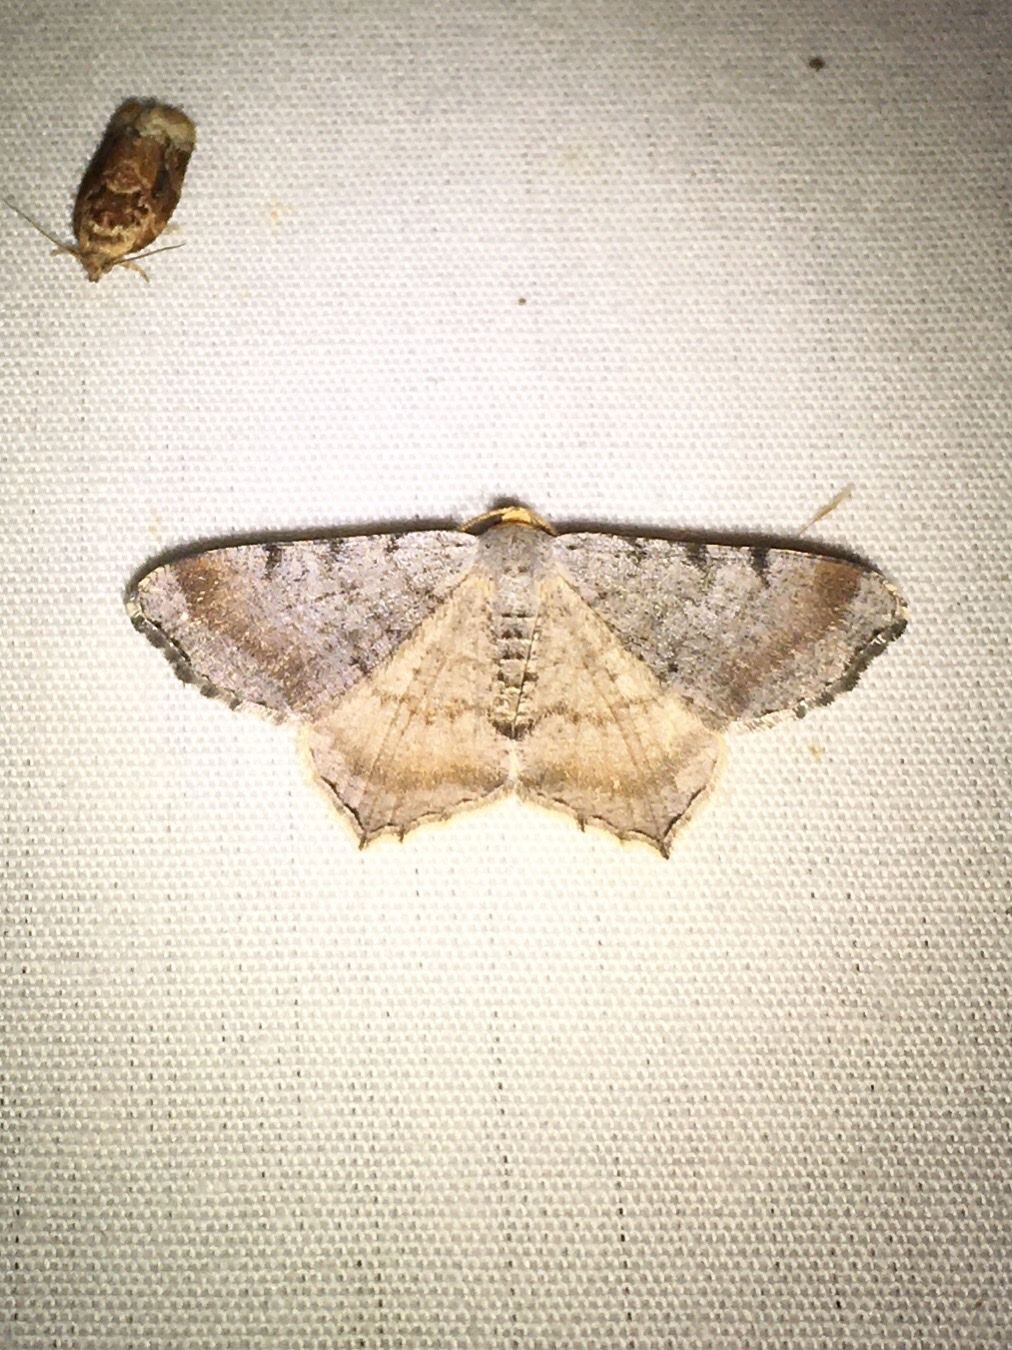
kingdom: Animalia
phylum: Arthropoda
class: Insecta
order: Lepidoptera
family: Geometridae
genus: Macaria
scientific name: Macaria minorata
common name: Minor angle moth
